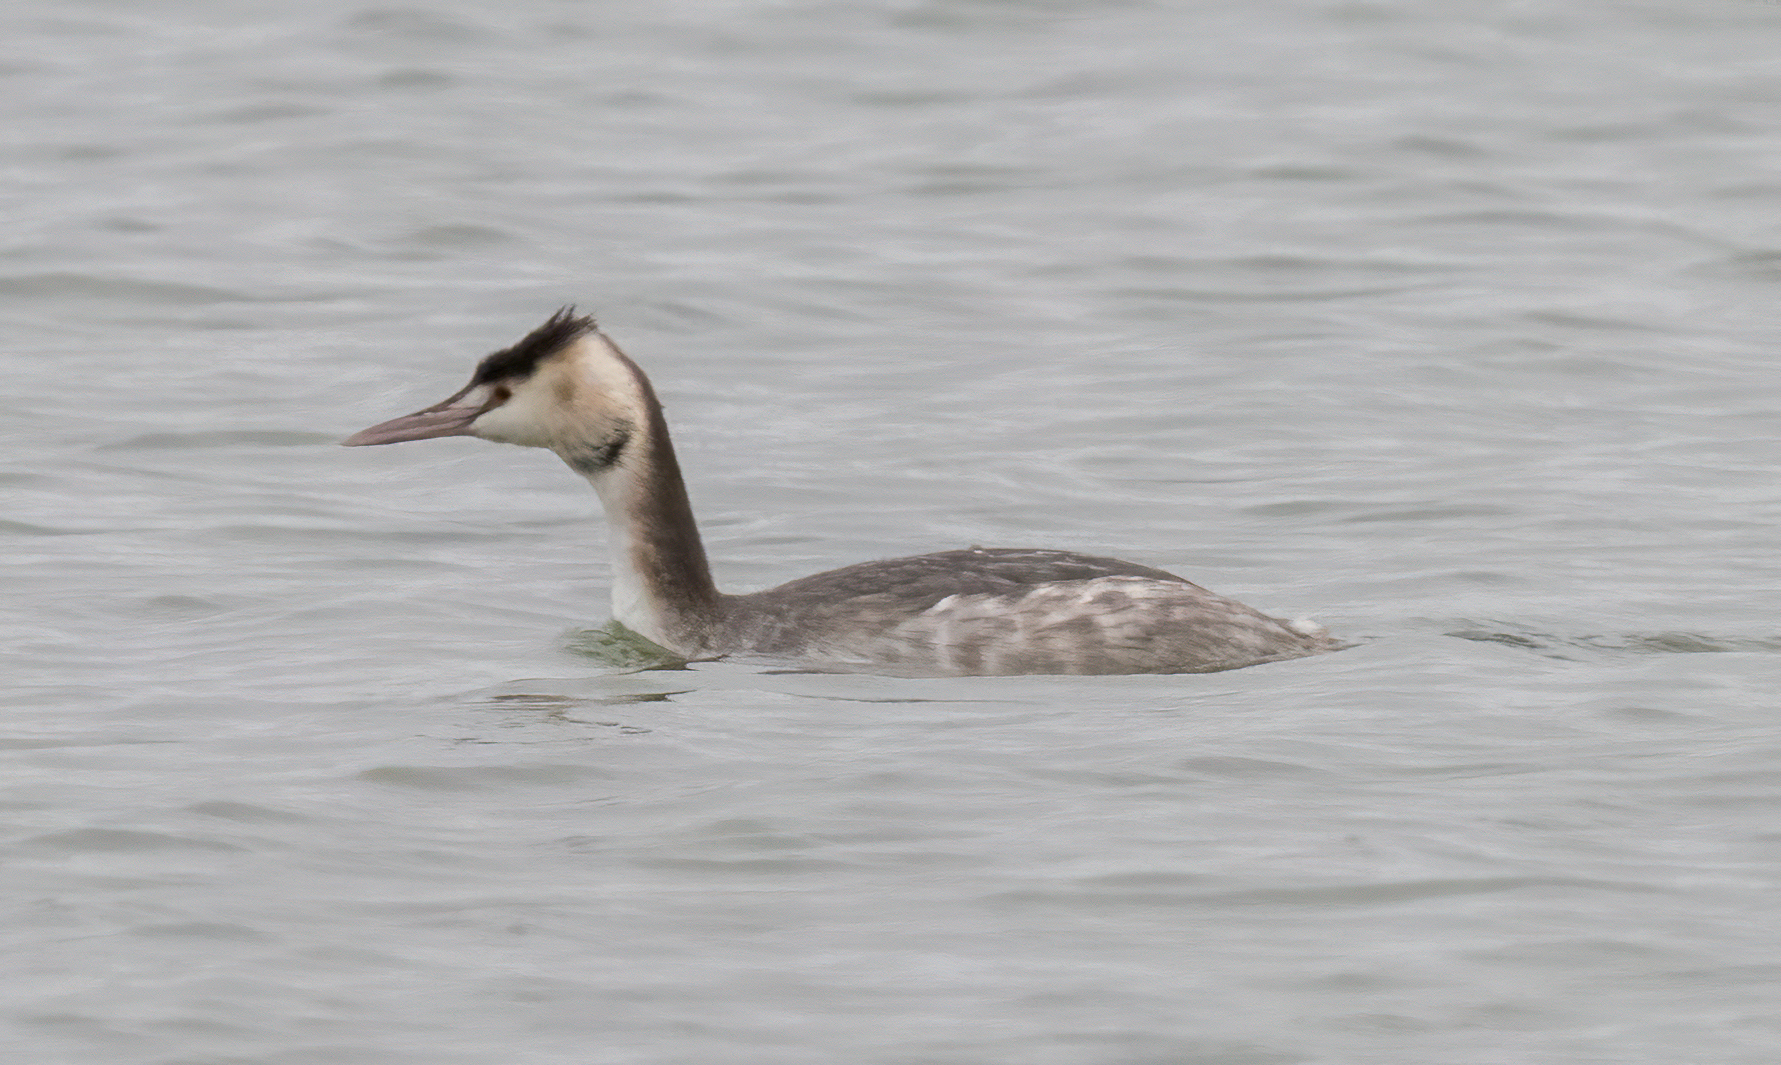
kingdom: Animalia
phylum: Chordata
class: Aves
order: Podicipediformes
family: Podicipedidae
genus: Podiceps
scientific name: Podiceps cristatus
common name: Great crested grebe
